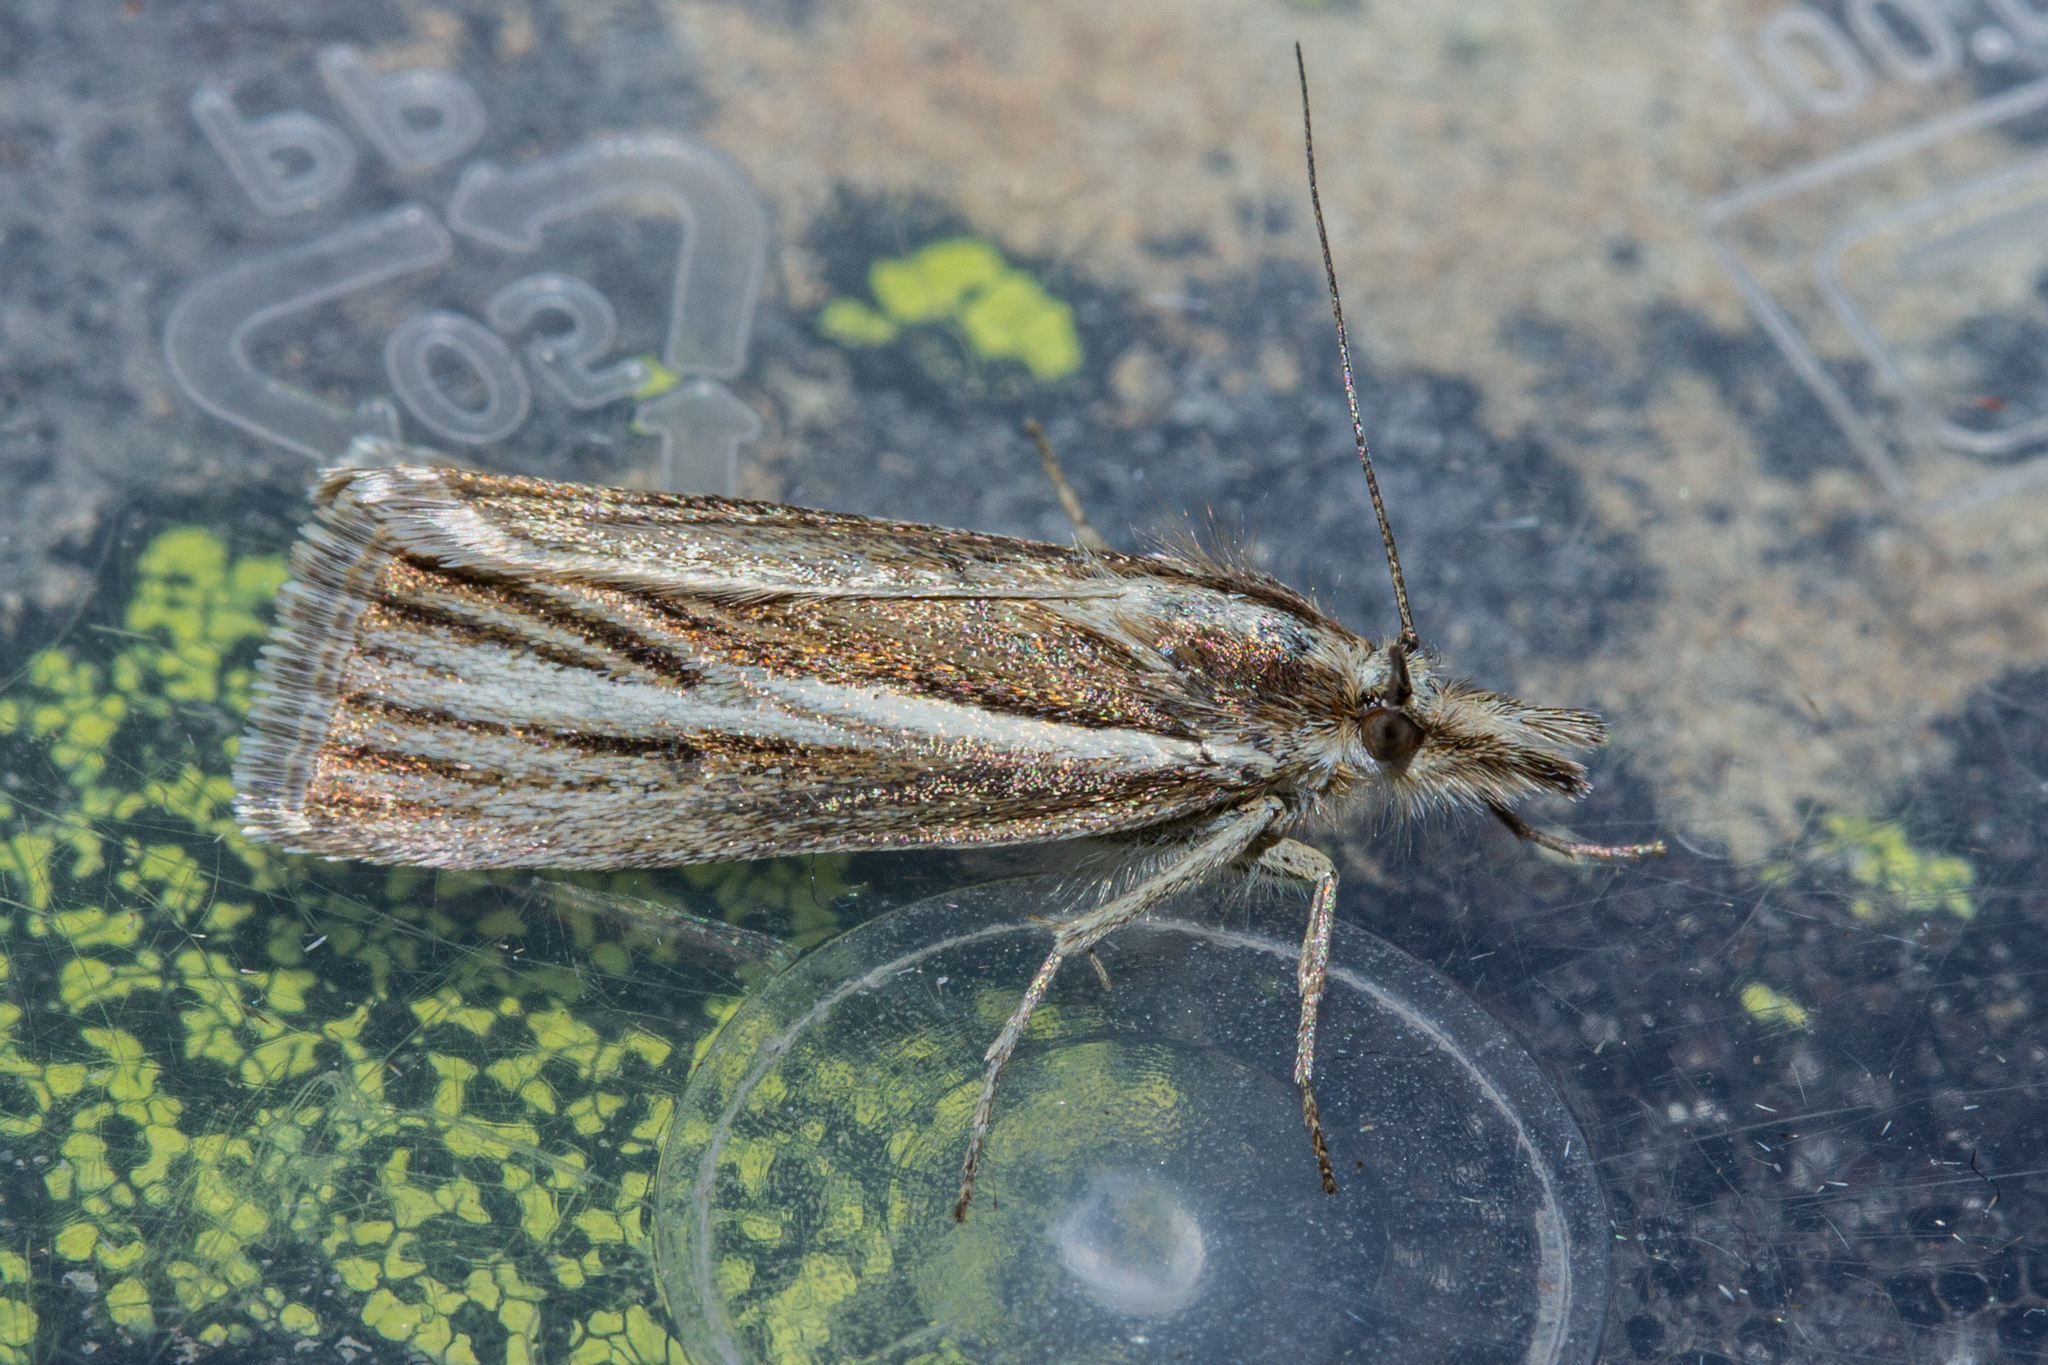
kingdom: Animalia
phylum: Arthropoda
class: Insecta
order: Lepidoptera
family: Crambidae
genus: Orocrambus
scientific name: Orocrambus tritonellus
